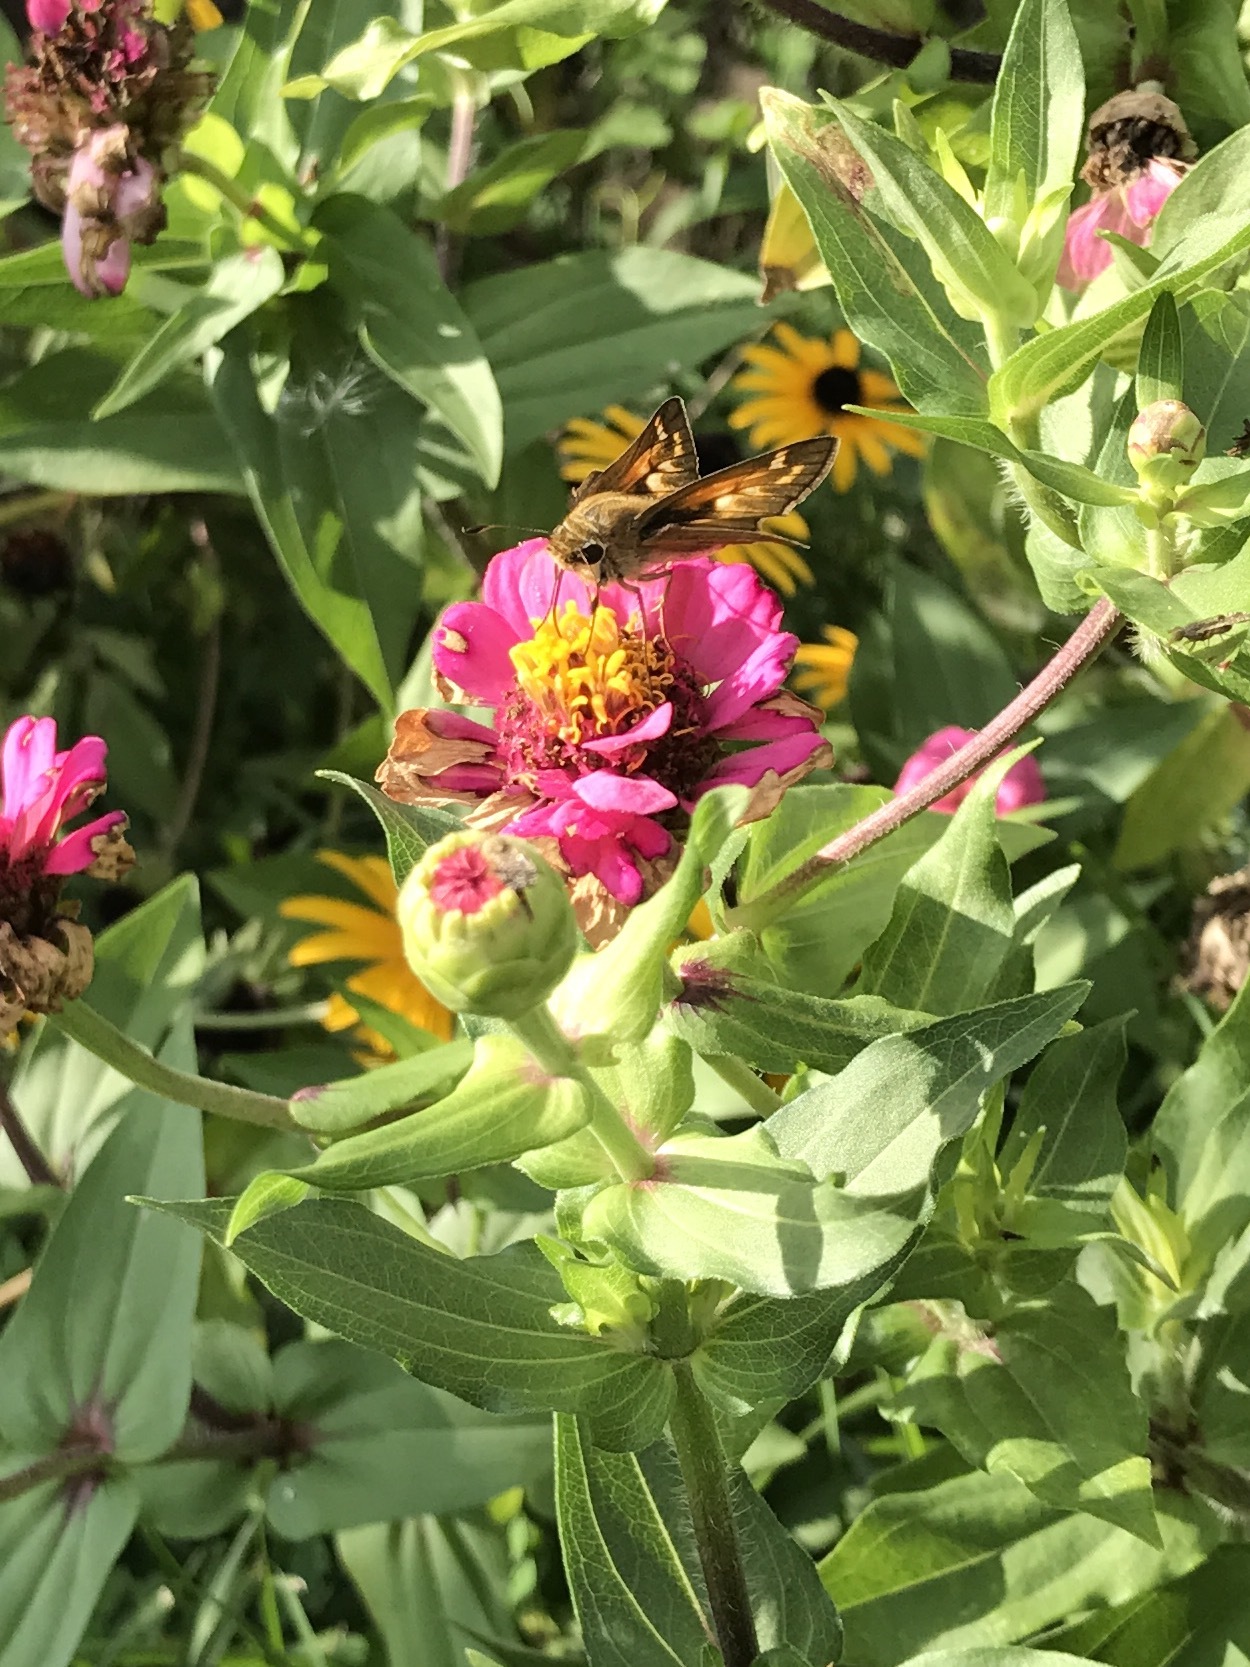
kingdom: Animalia
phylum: Arthropoda
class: Insecta
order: Lepidoptera
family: Hesperiidae
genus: Atalopedes
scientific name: Atalopedes
